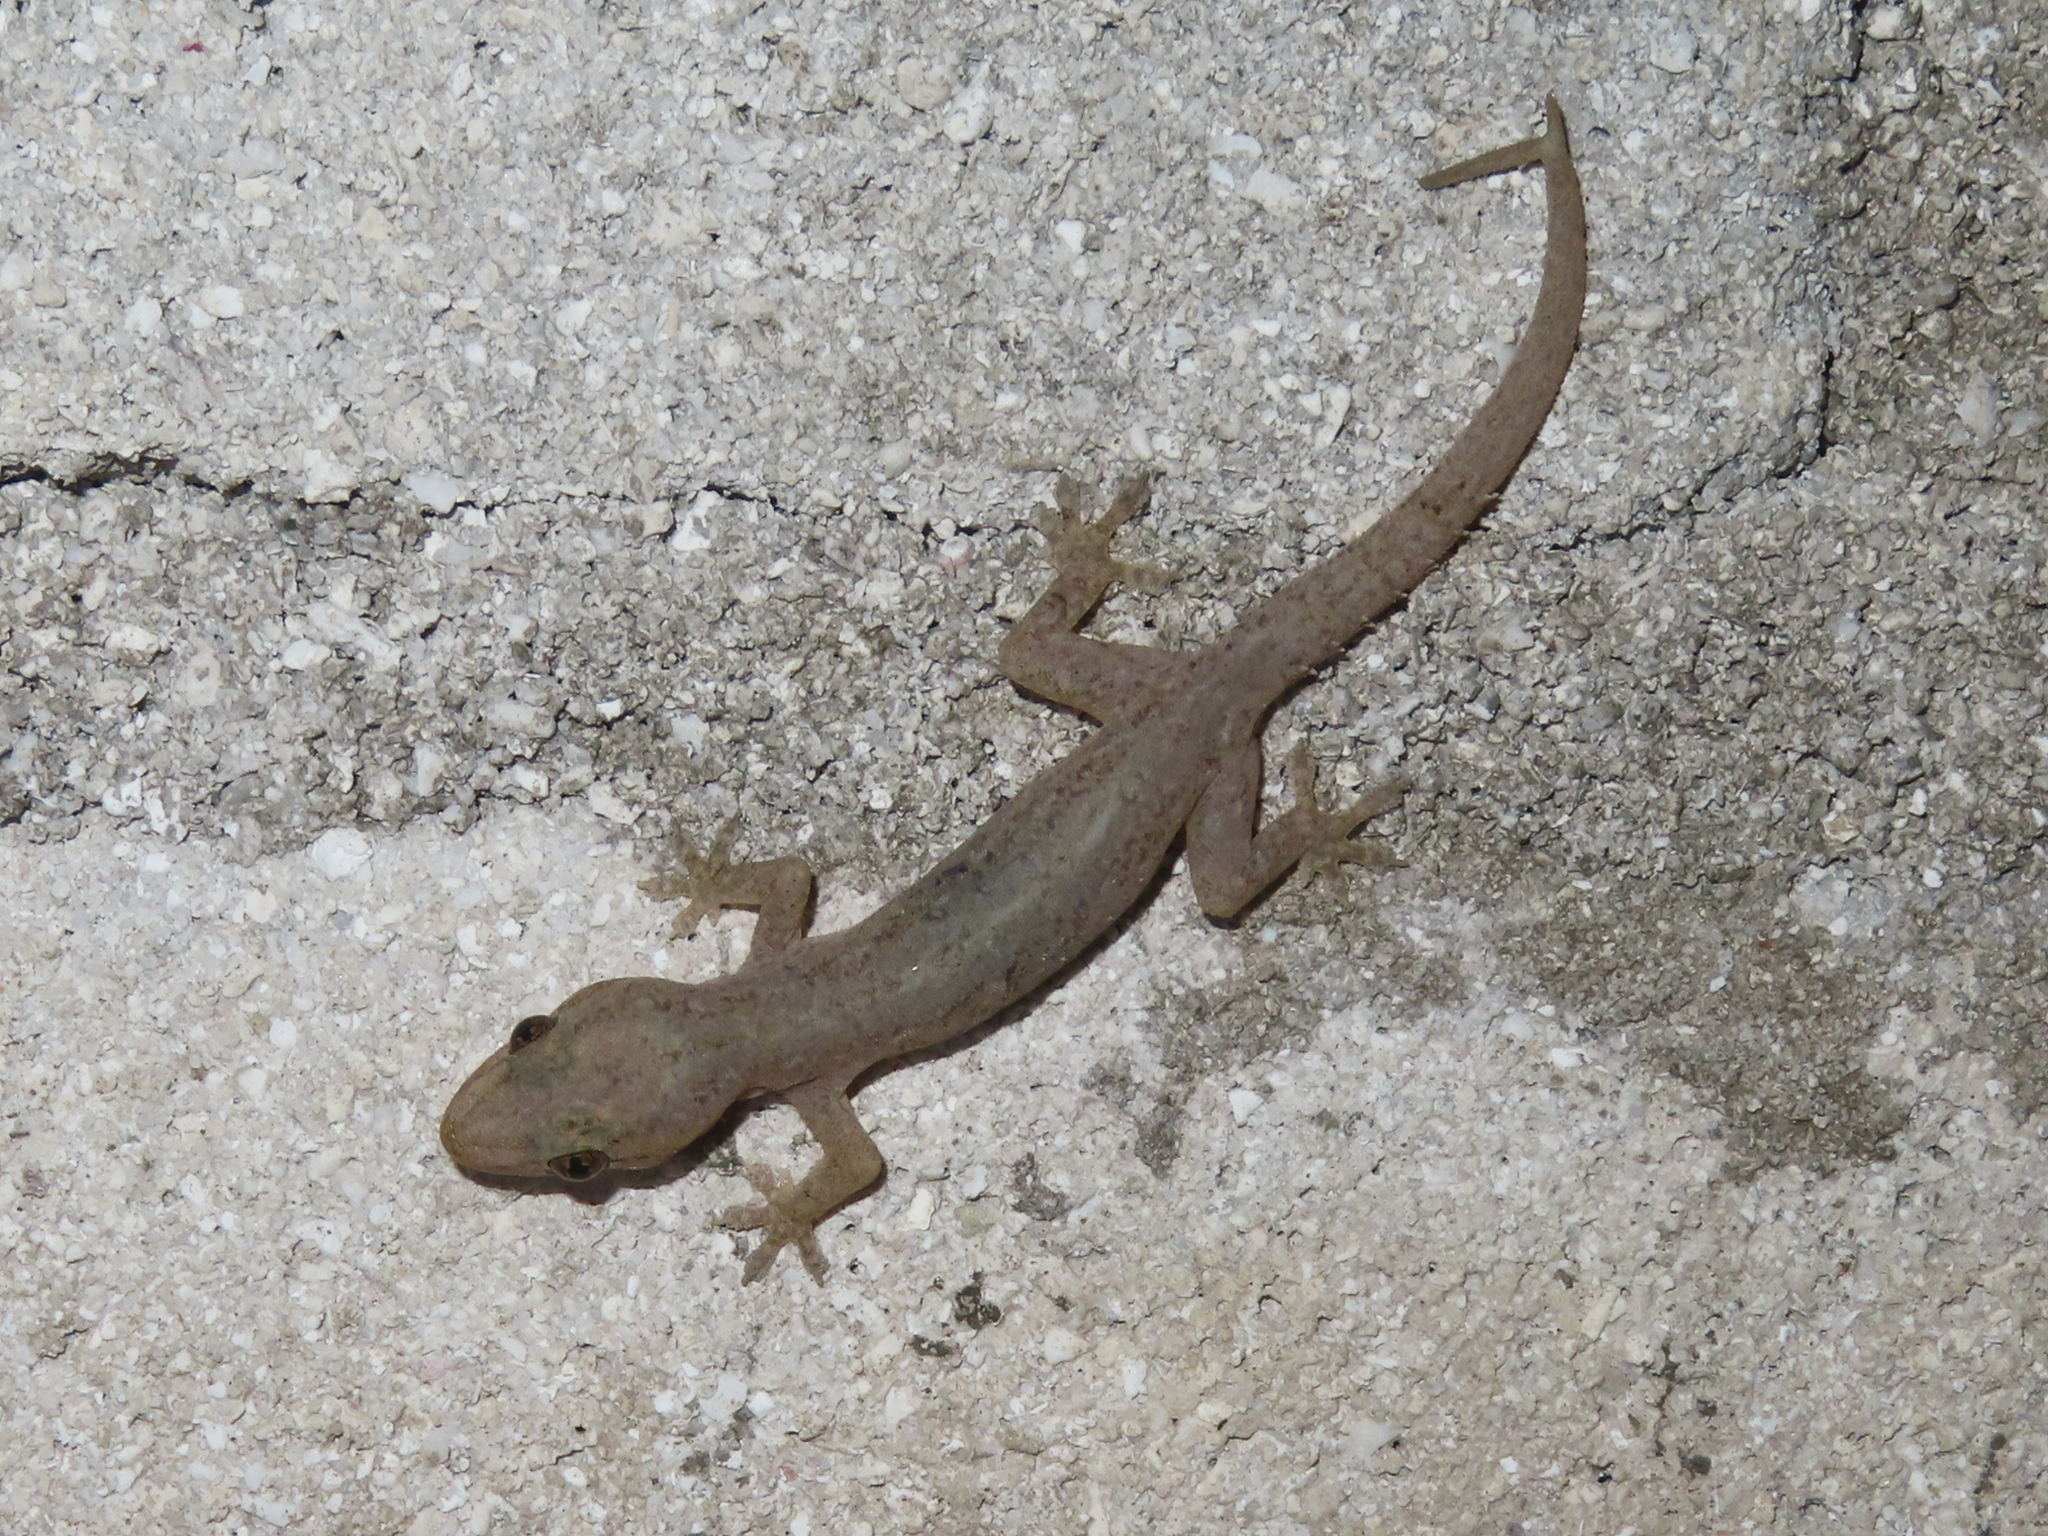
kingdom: Animalia
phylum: Chordata
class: Squamata
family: Gekkonidae
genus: Hemidactylus
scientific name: Hemidactylus frenatus
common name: Common house gecko
